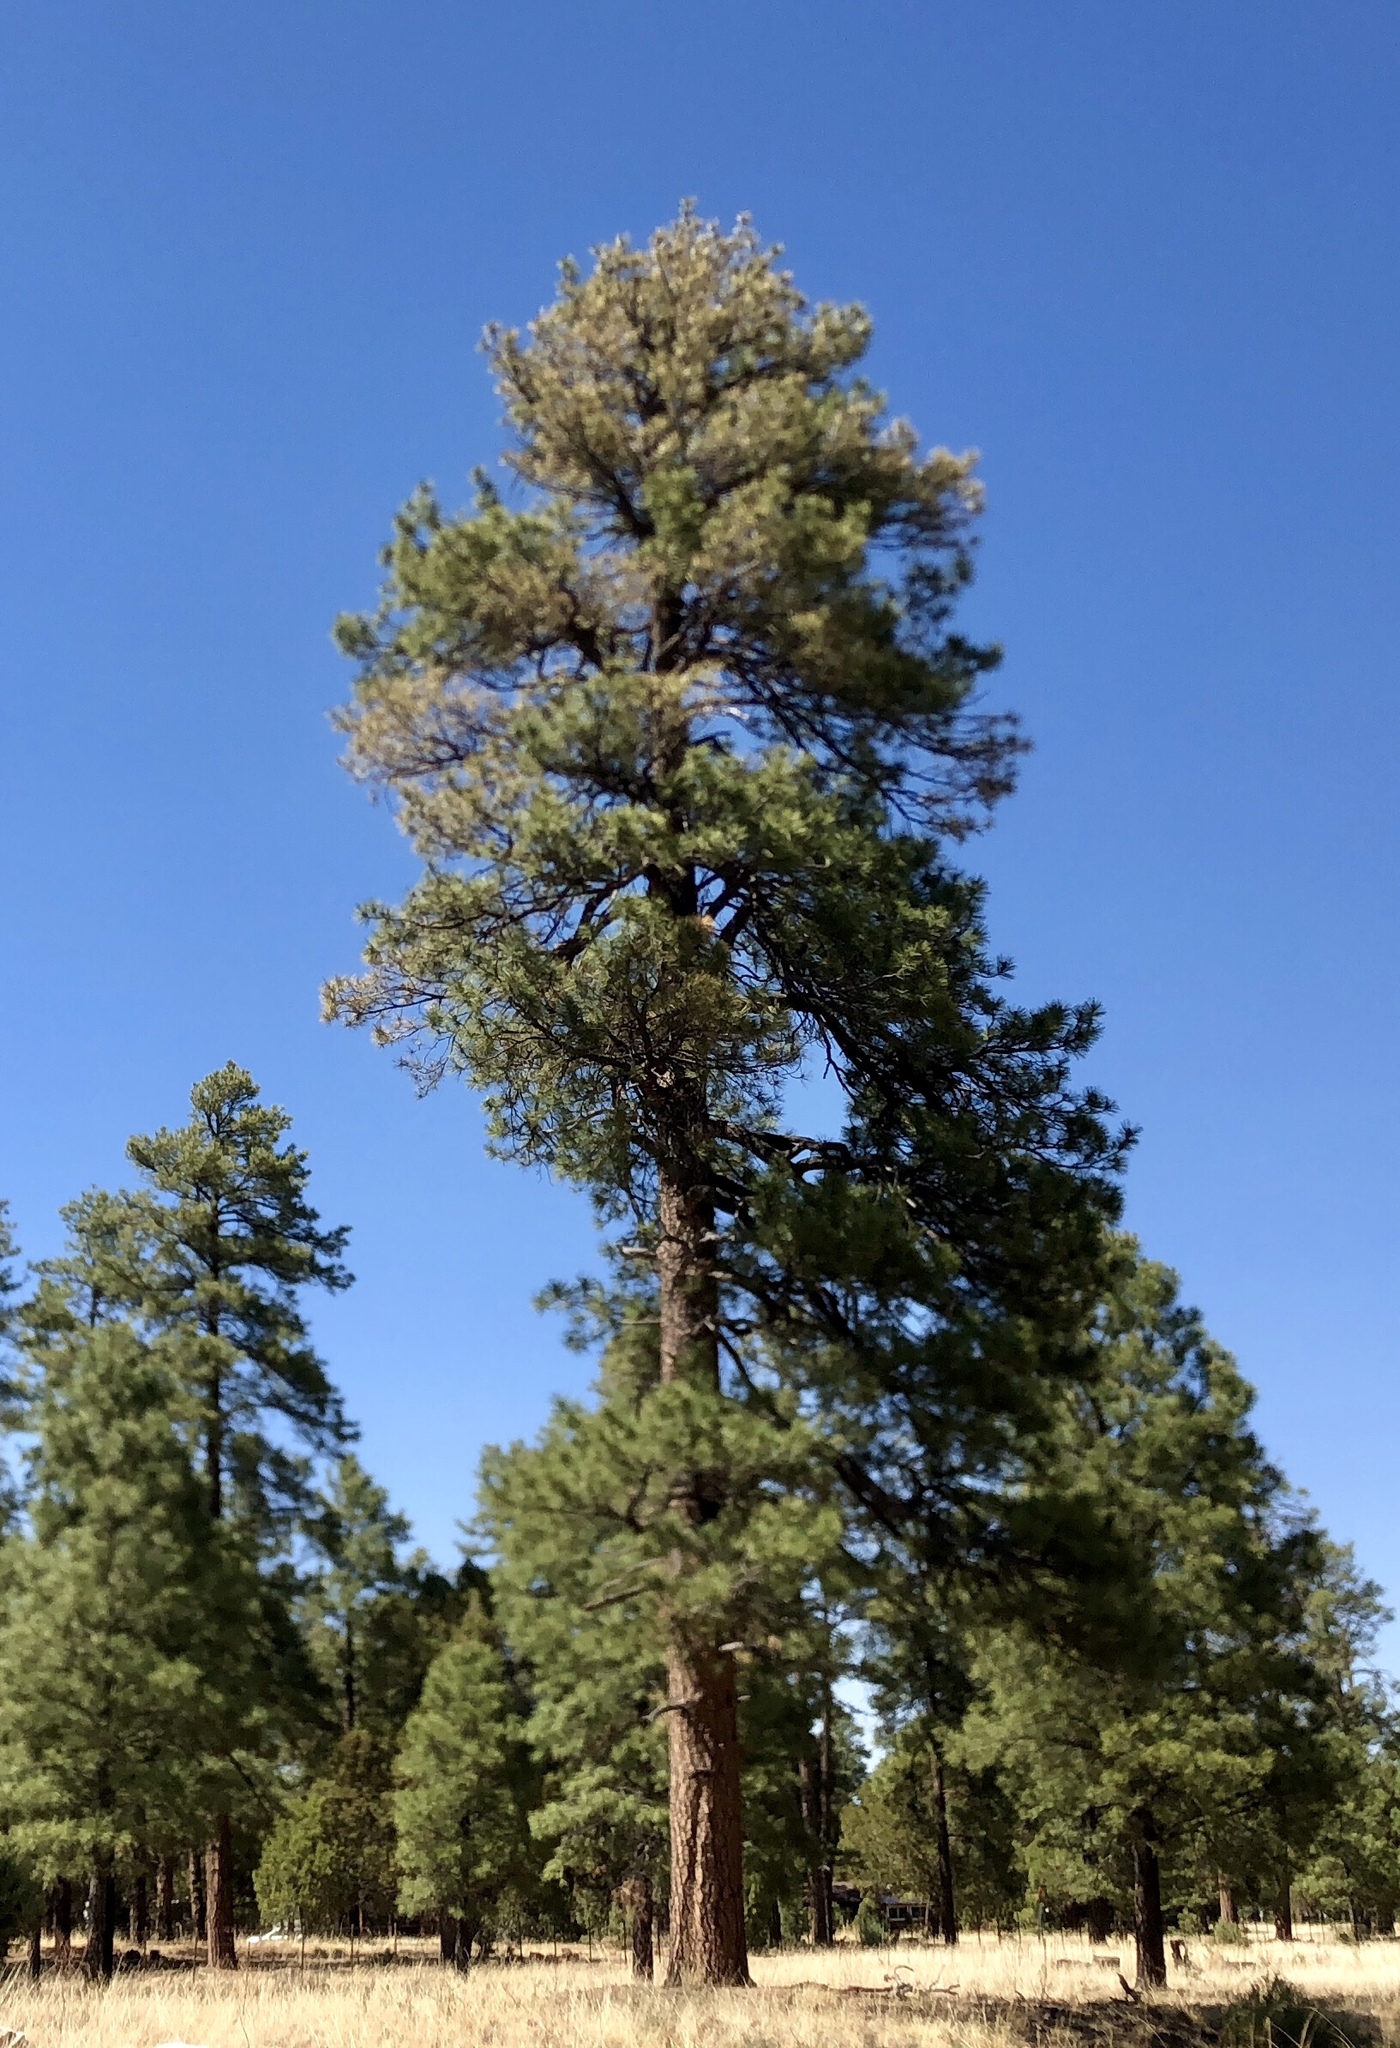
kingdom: Plantae
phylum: Tracheophyta
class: Pinopsida
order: Pinales
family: Pinaceae
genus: Pinus
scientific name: Pinus ponderosa
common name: Western yellow-pine
